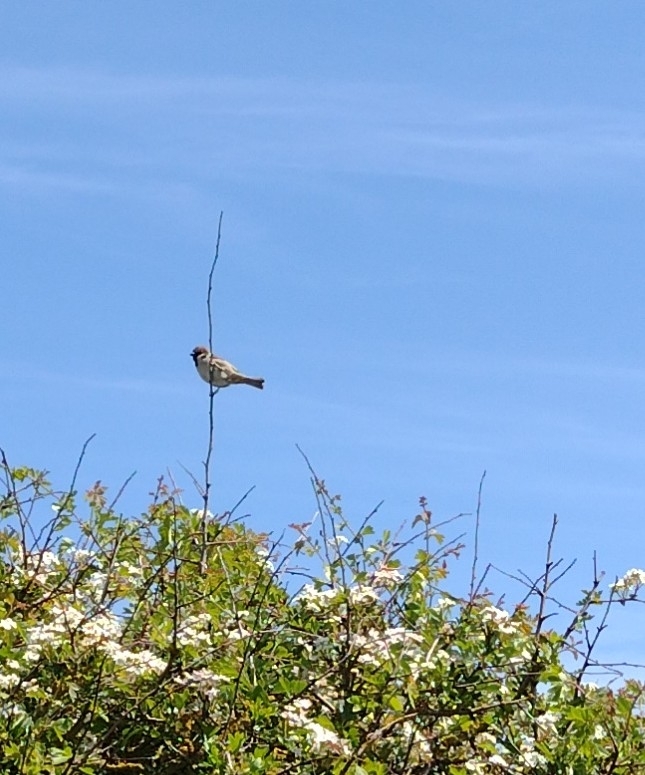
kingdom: Animalia
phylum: Chordata
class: Aves
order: Passeriformes
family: Passeridae
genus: Passer
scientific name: Passer montanus
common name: Eurasian tree sparrow
